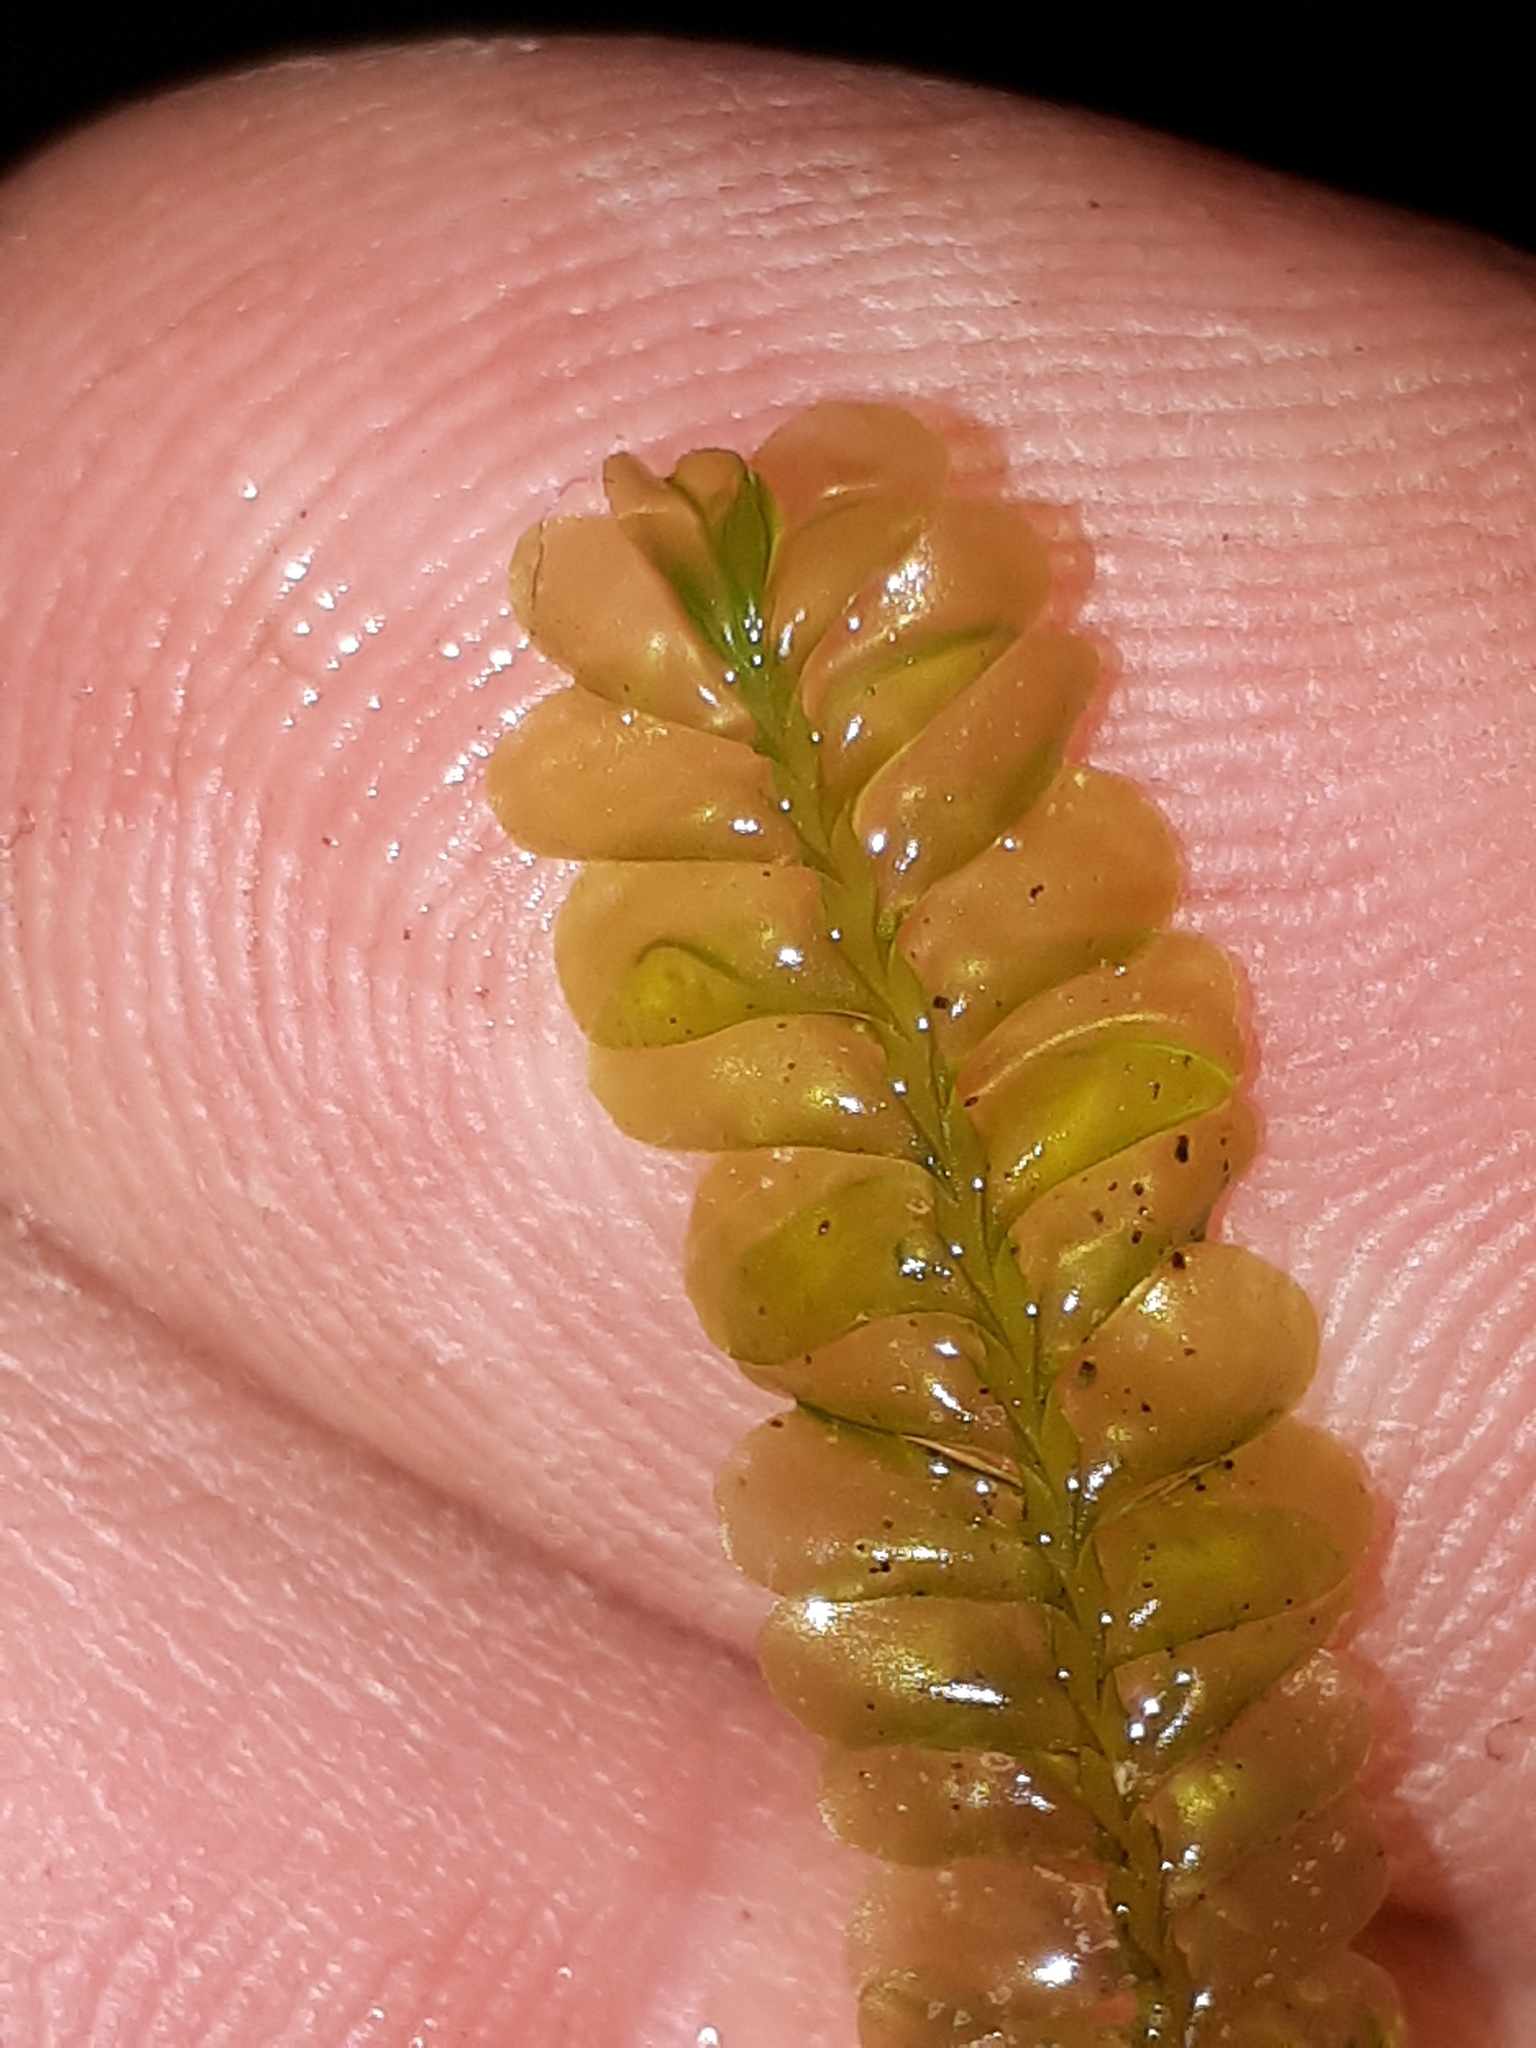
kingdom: Plantae
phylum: Marchantiophyta
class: Jungermanniopsida
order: Jungermanniales
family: Plagiochilaceae
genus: Plagiochila
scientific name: Plagiochila porelloides
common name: Lesser featherwort
